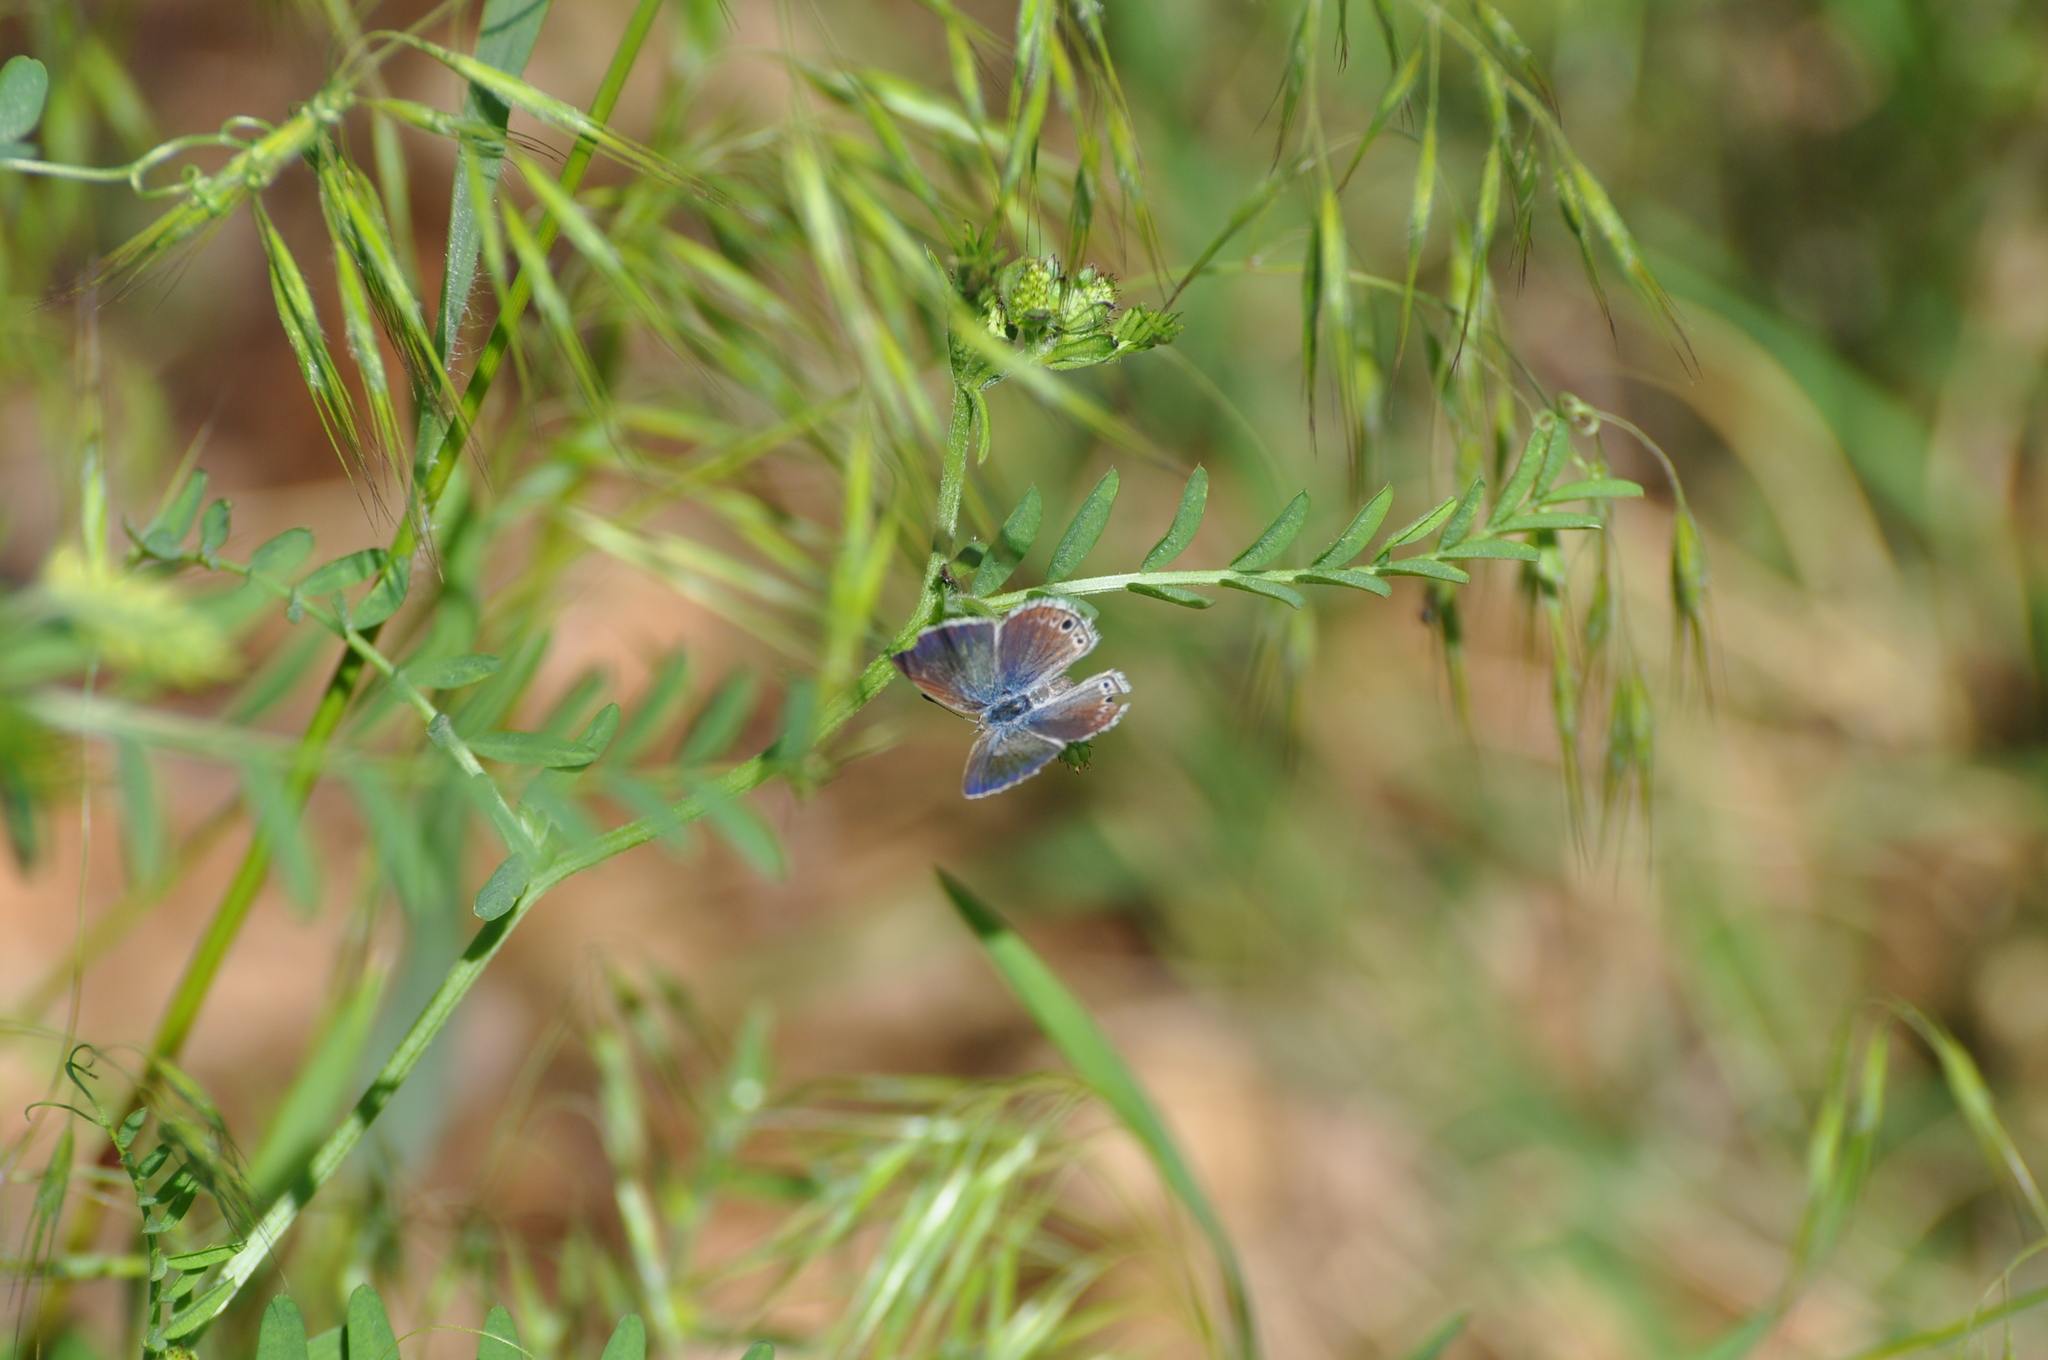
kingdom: Animalia
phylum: Arthropoda
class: Insecta
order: Lepidoptera
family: Lycaenidae
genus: Echinargus
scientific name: Echinargus isola
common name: Reakirt's blue
